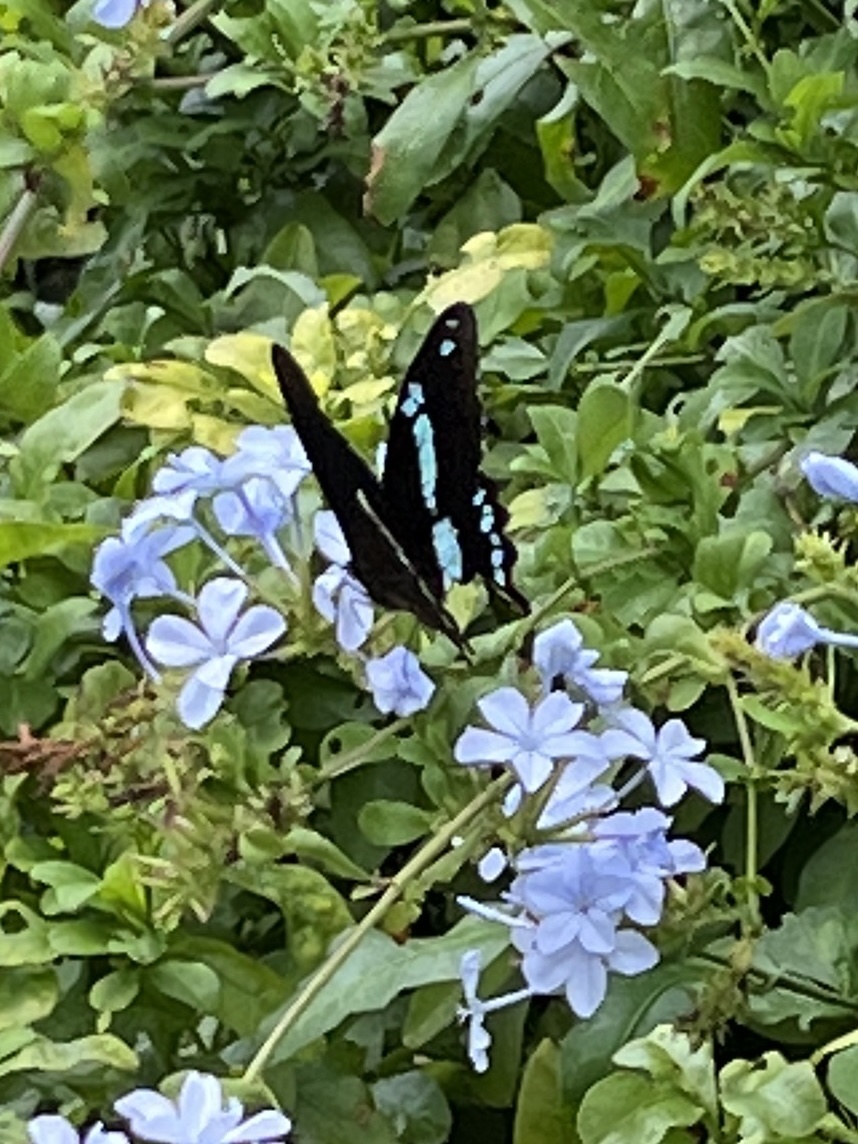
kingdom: Animalia
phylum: Arthropoda
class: Insecta
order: Lepidoptera
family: Papilionidae
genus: Papilio
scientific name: Papilio nireus
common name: Greenbanded swallowtail
